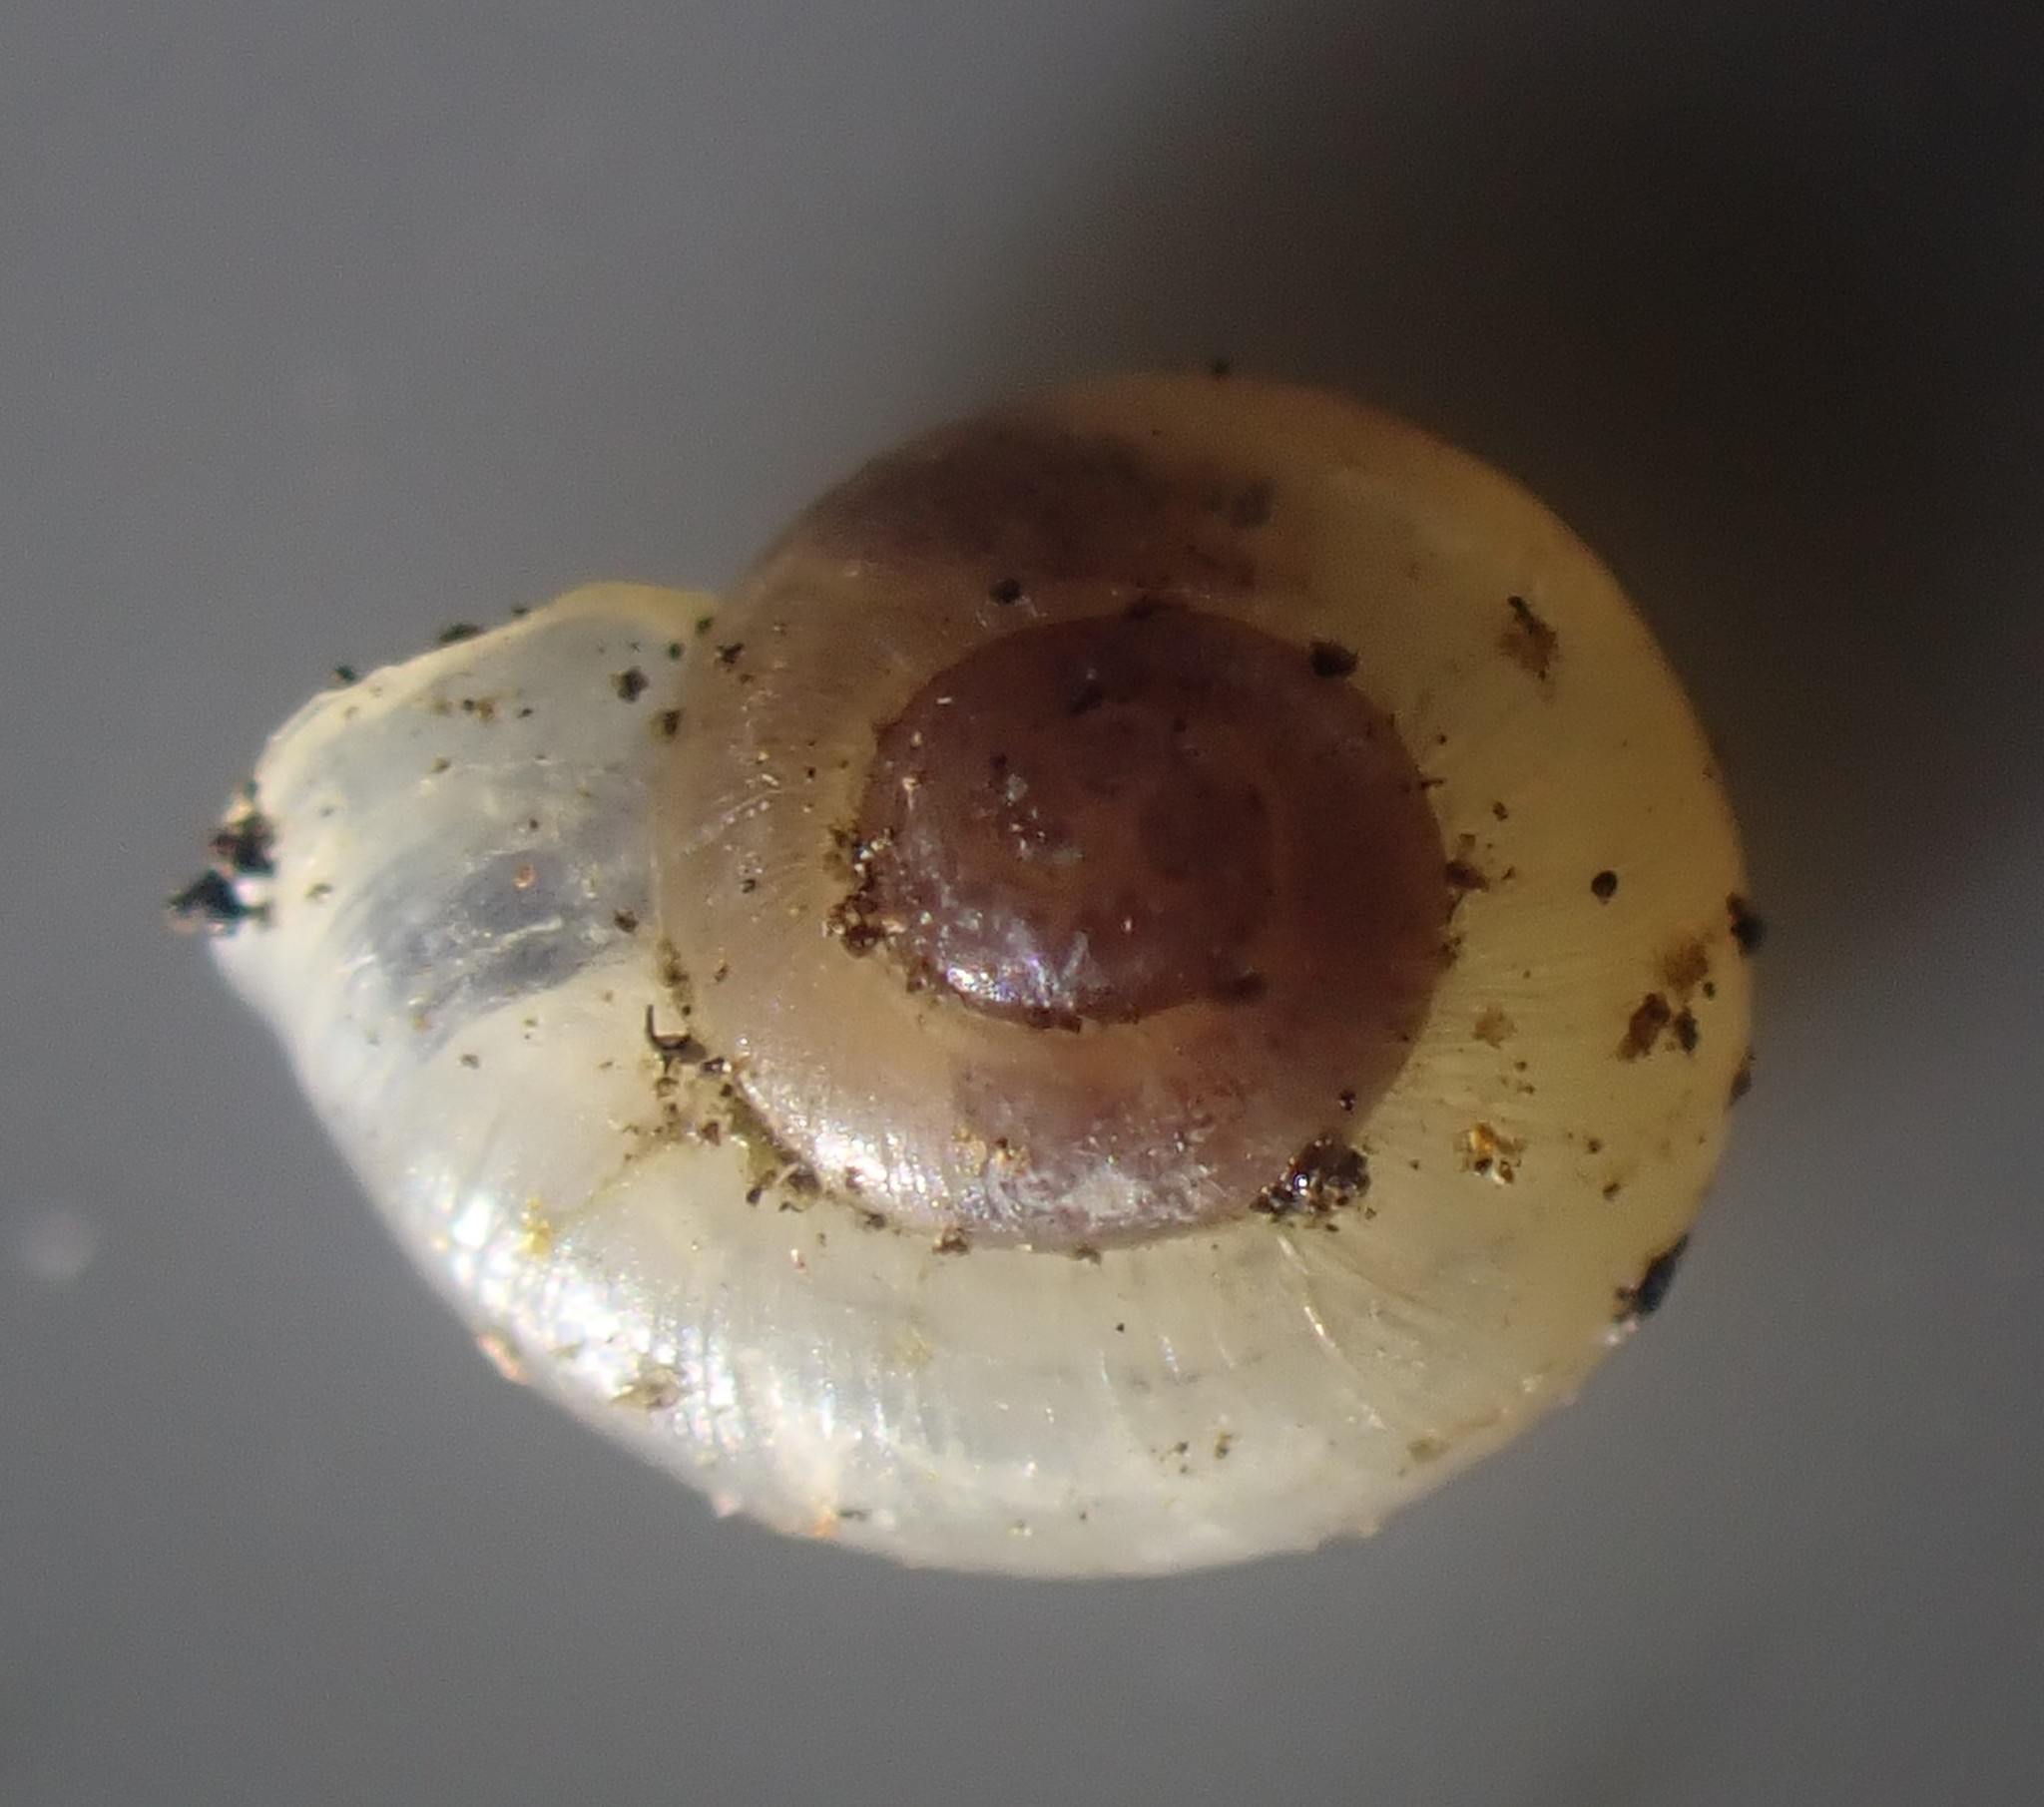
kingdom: Animalia
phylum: Mollusca
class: Gastropoda
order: Stylommatophora
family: Valloniidae
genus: Vallonia
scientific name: Vallonia excentrica
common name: Eccentric grass snail
